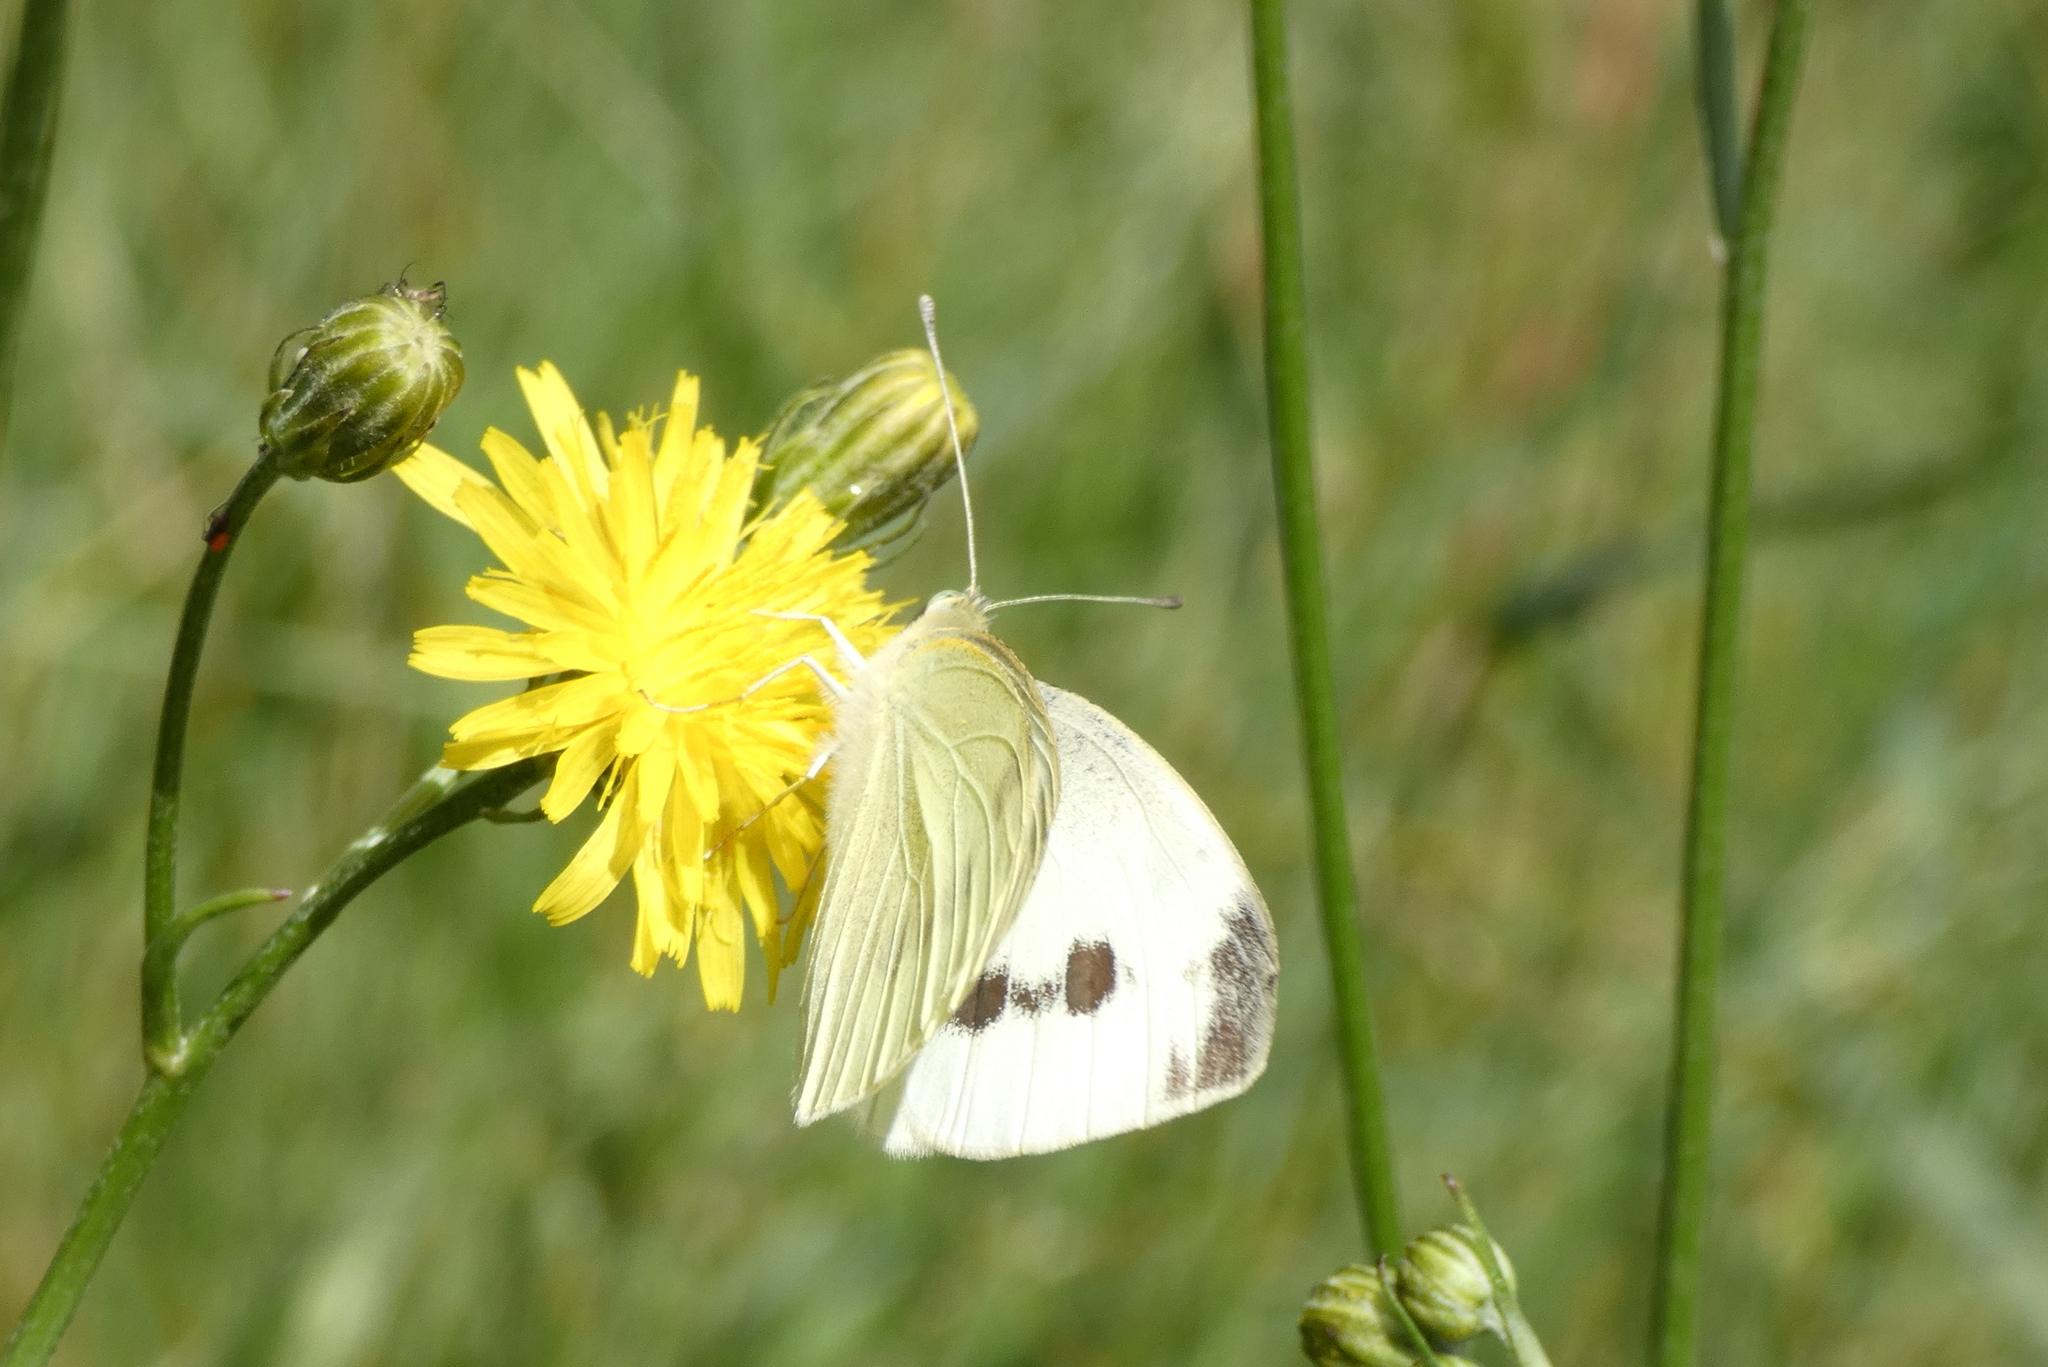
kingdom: Animalia
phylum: Arthropoda
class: Insecta
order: Lepidoptera
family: Pieridae
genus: Pieris
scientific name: Pieris rapae
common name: Small white
